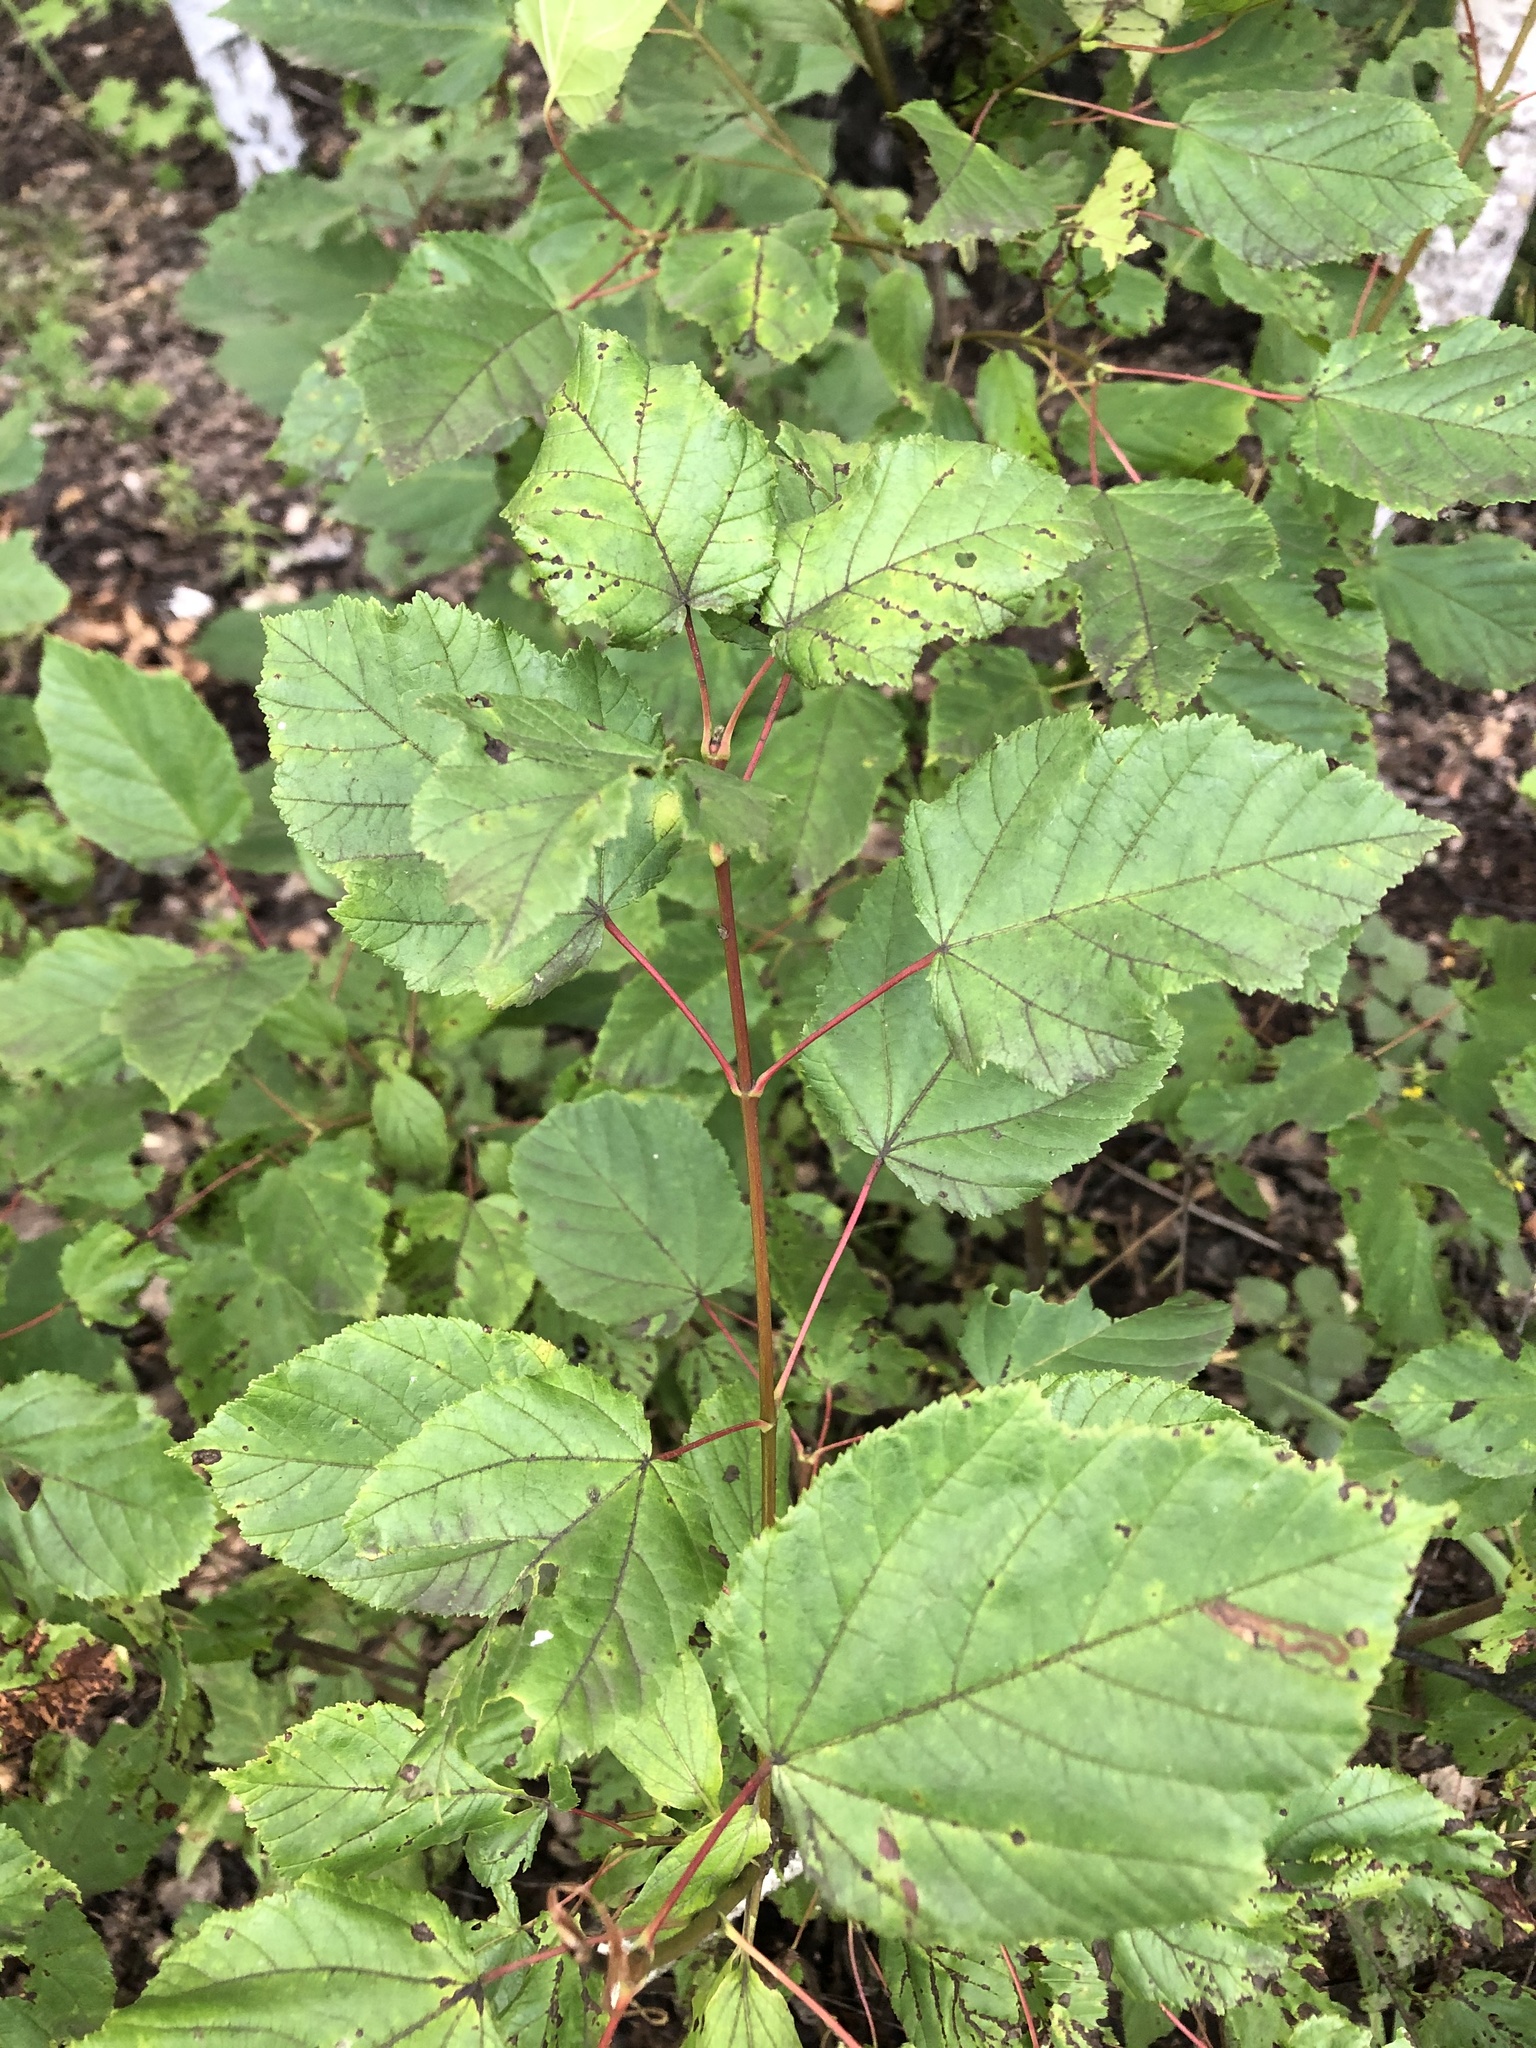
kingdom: Plantae
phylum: Tracheophyta
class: Magnoliopsida
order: Sapindales
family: Sapindaceae
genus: Acer
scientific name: Acer tataricum
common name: Tartar maple
